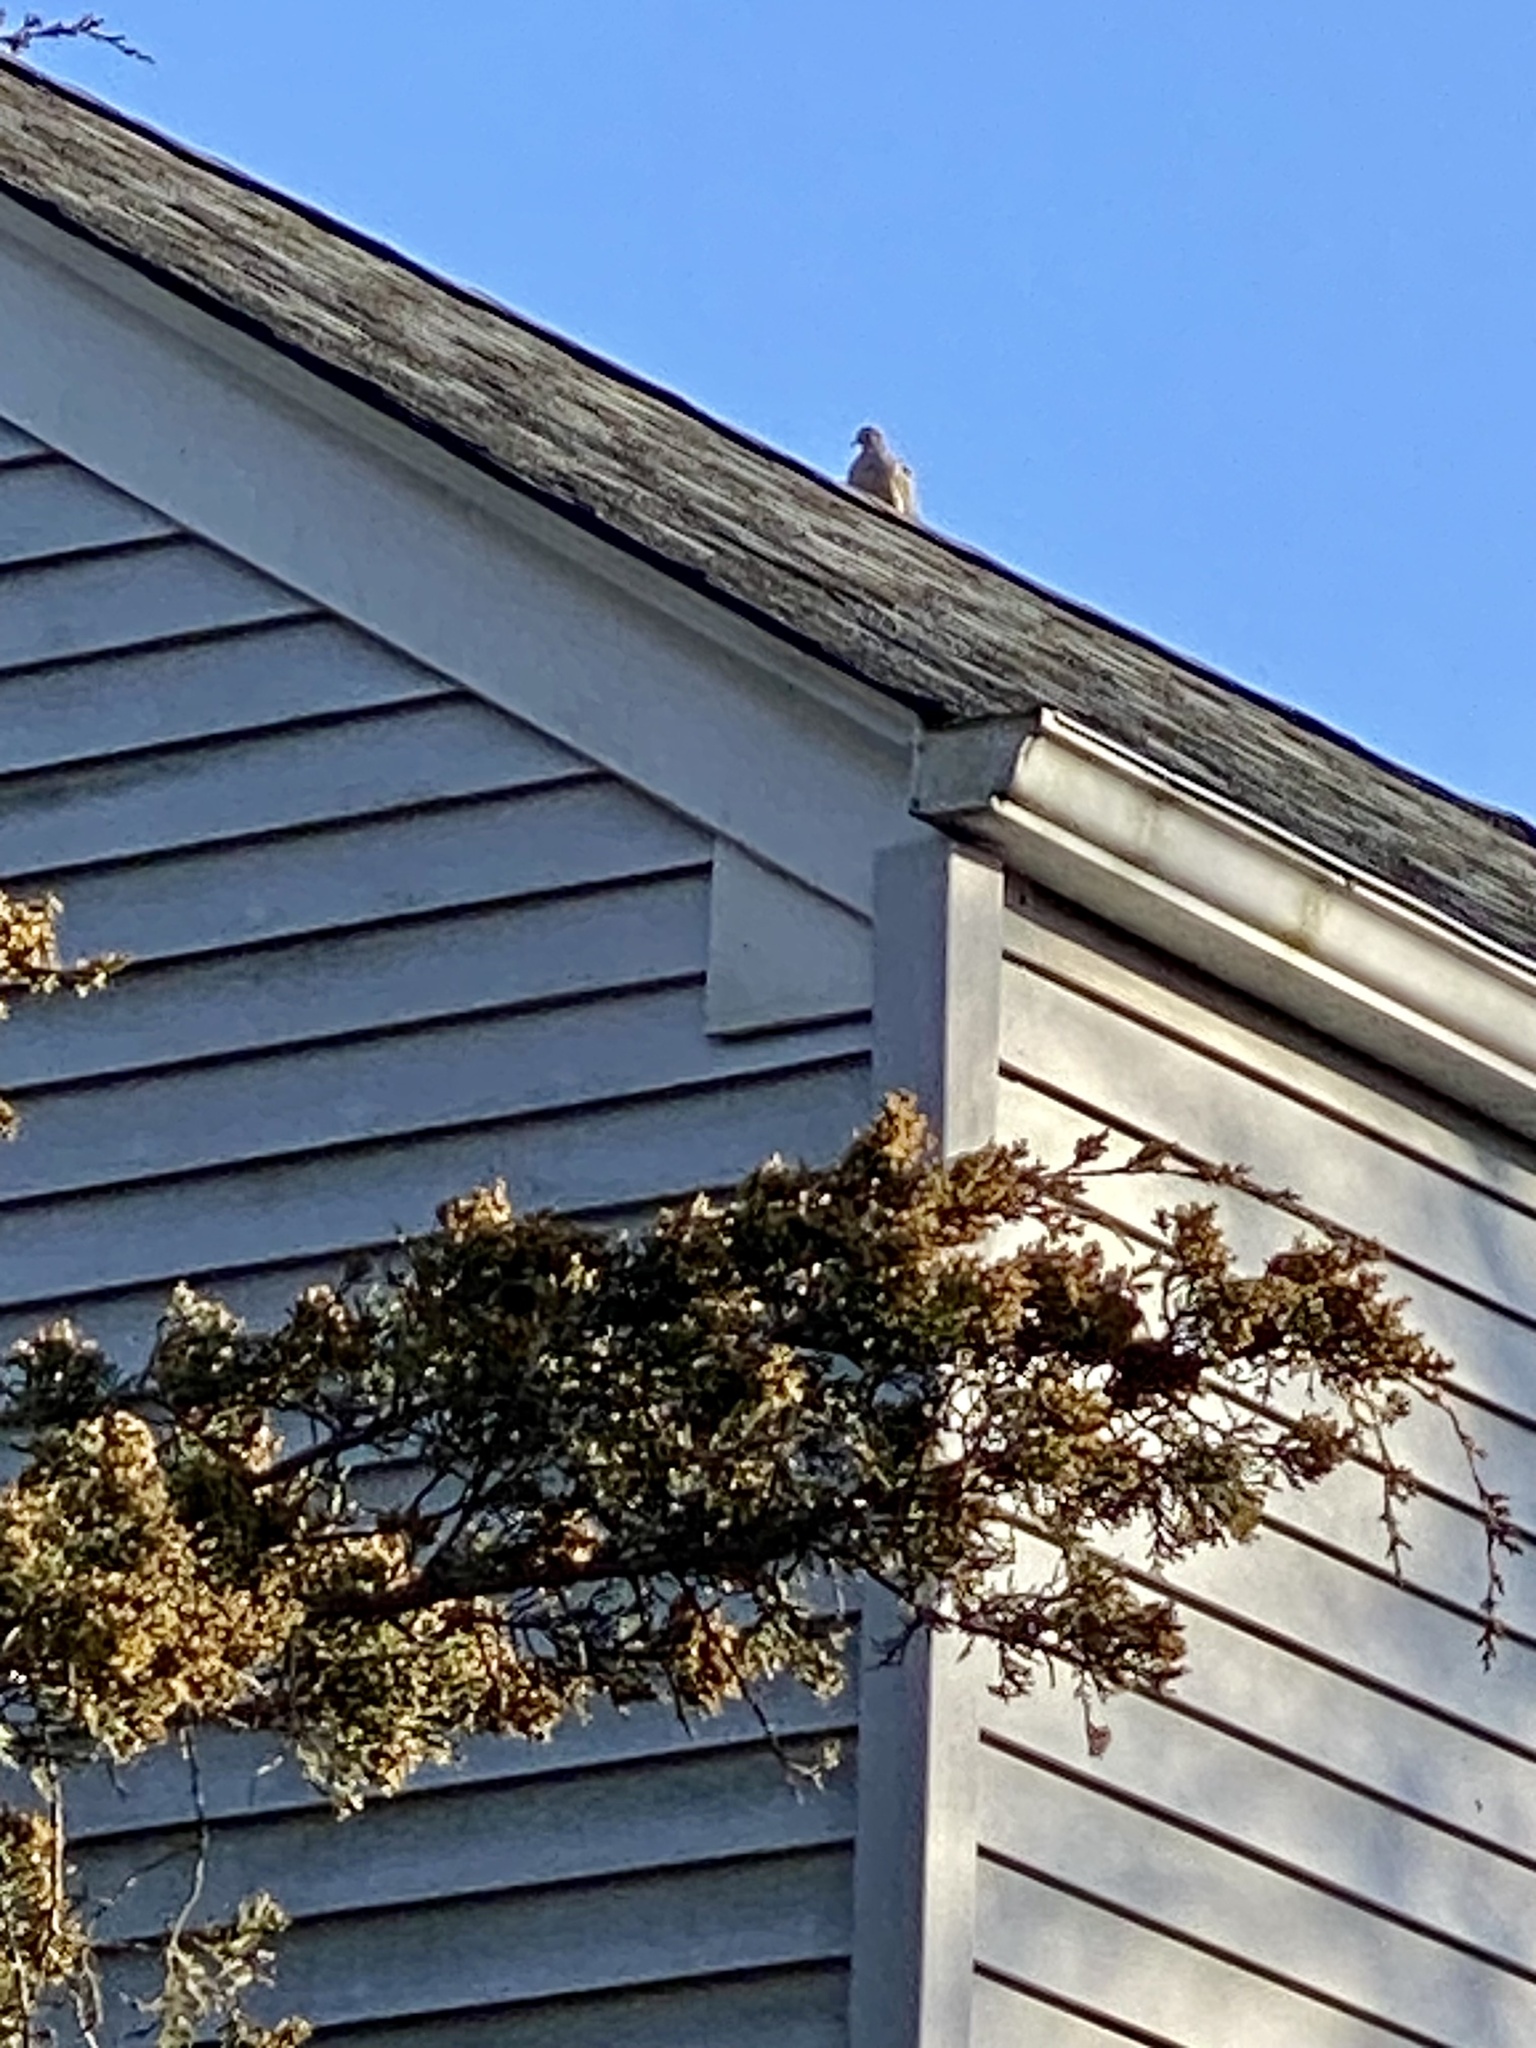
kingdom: Animalia
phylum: Chordata
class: Aves
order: Columbiformes
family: Columbidae
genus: Zenaida
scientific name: Zenaida macroura
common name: Mourning dove
